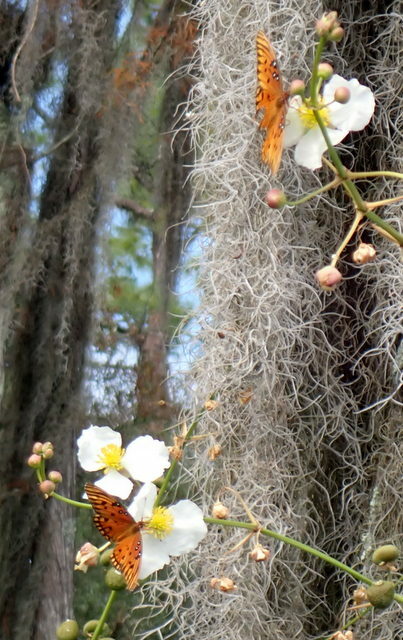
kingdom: Animalia
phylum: Arthropoda
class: Insecta
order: Lepidoptera
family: Nymphalidae
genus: Dione
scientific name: Dione vanillae
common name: Gulf fritillary
